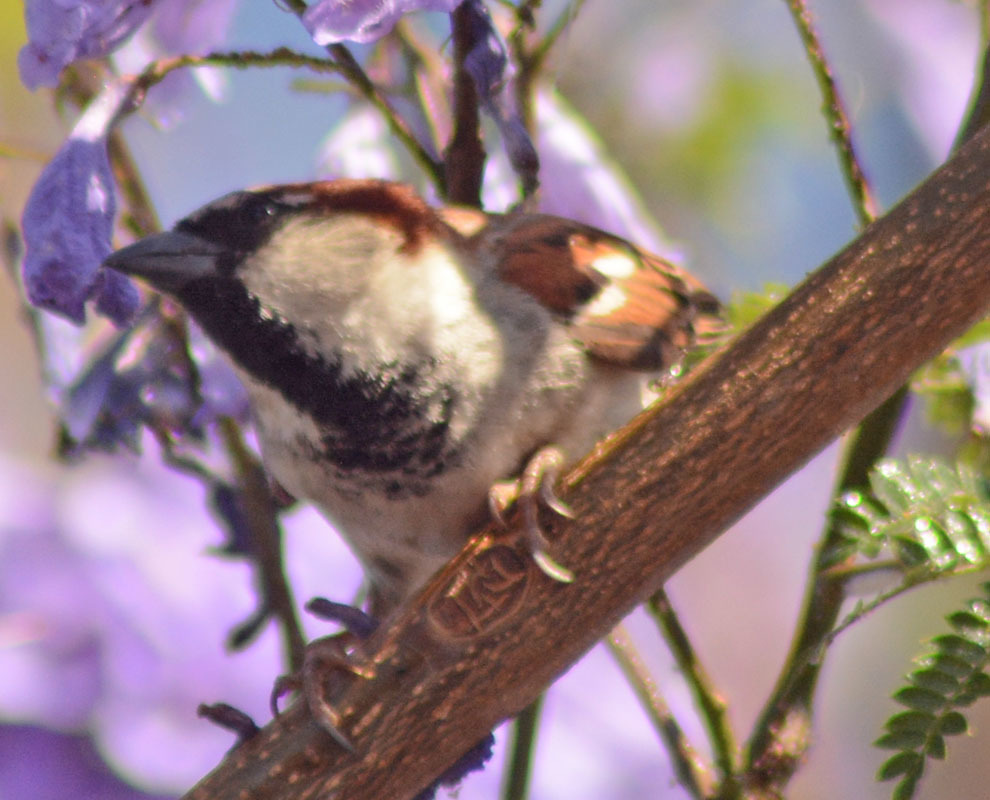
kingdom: Animalia
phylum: Chordata
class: Aves
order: Passeriformes
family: Passeridae
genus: Passer
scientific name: Passer domesticus
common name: House sparrow
